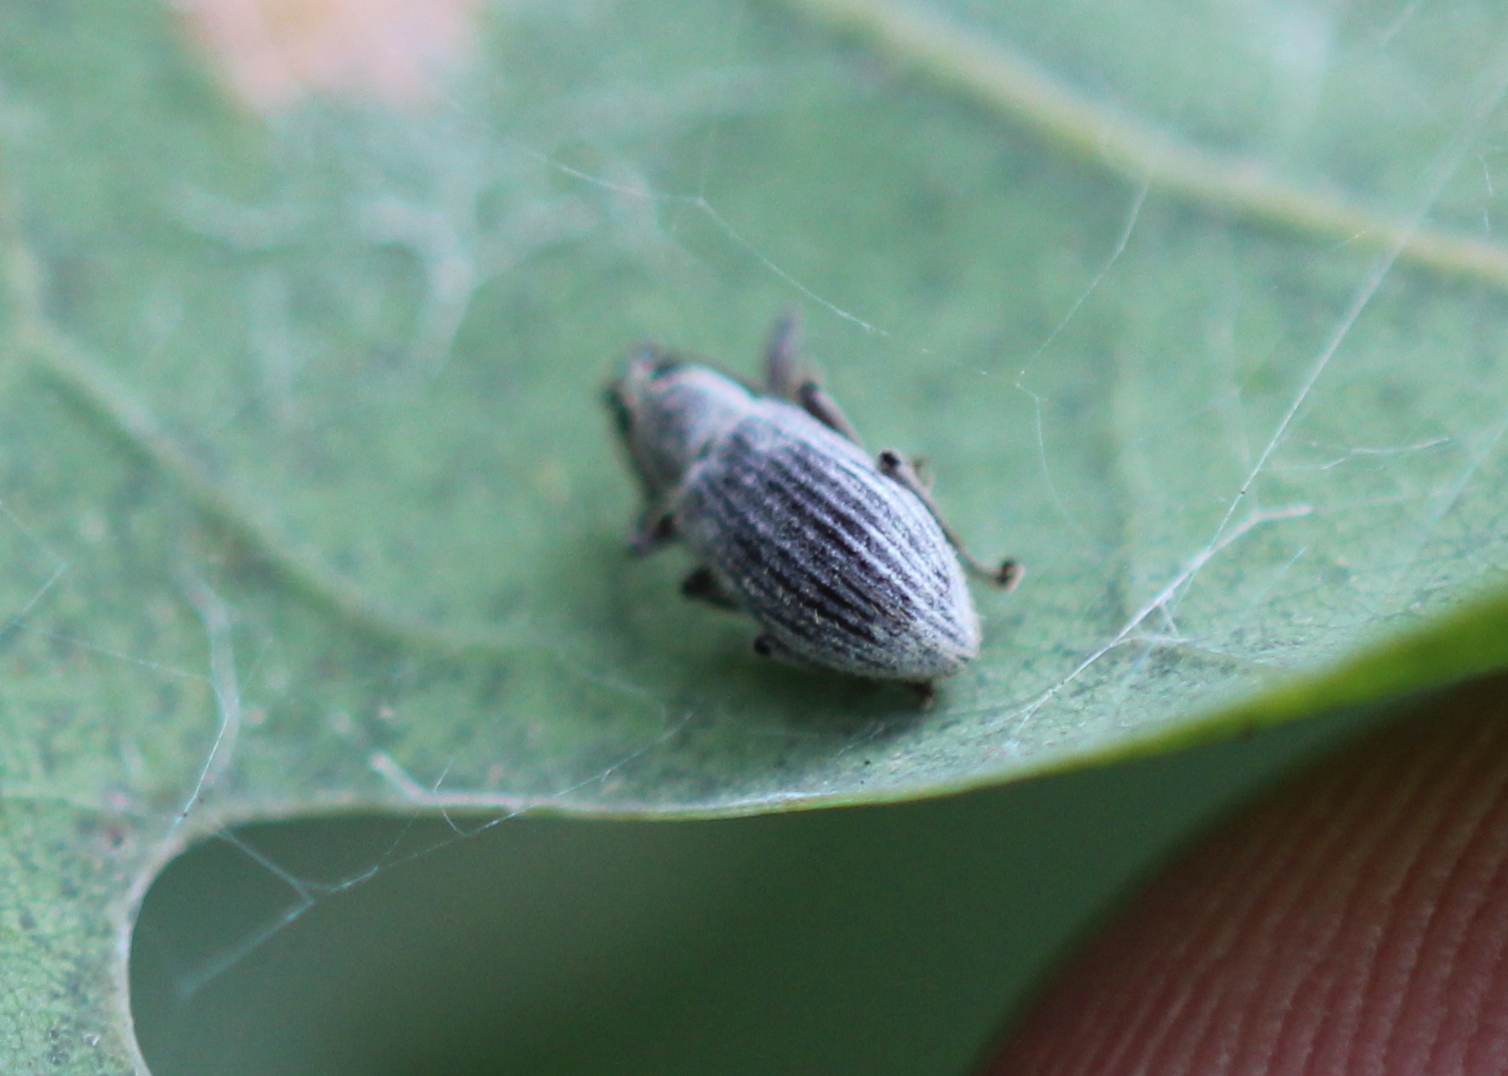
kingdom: Animalia
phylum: Arthropoda
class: Insecta
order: Coleoptera
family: Curculionidae
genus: Cyrtepistomus
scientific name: Cyrtepistomus castaneus
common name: Weevil
